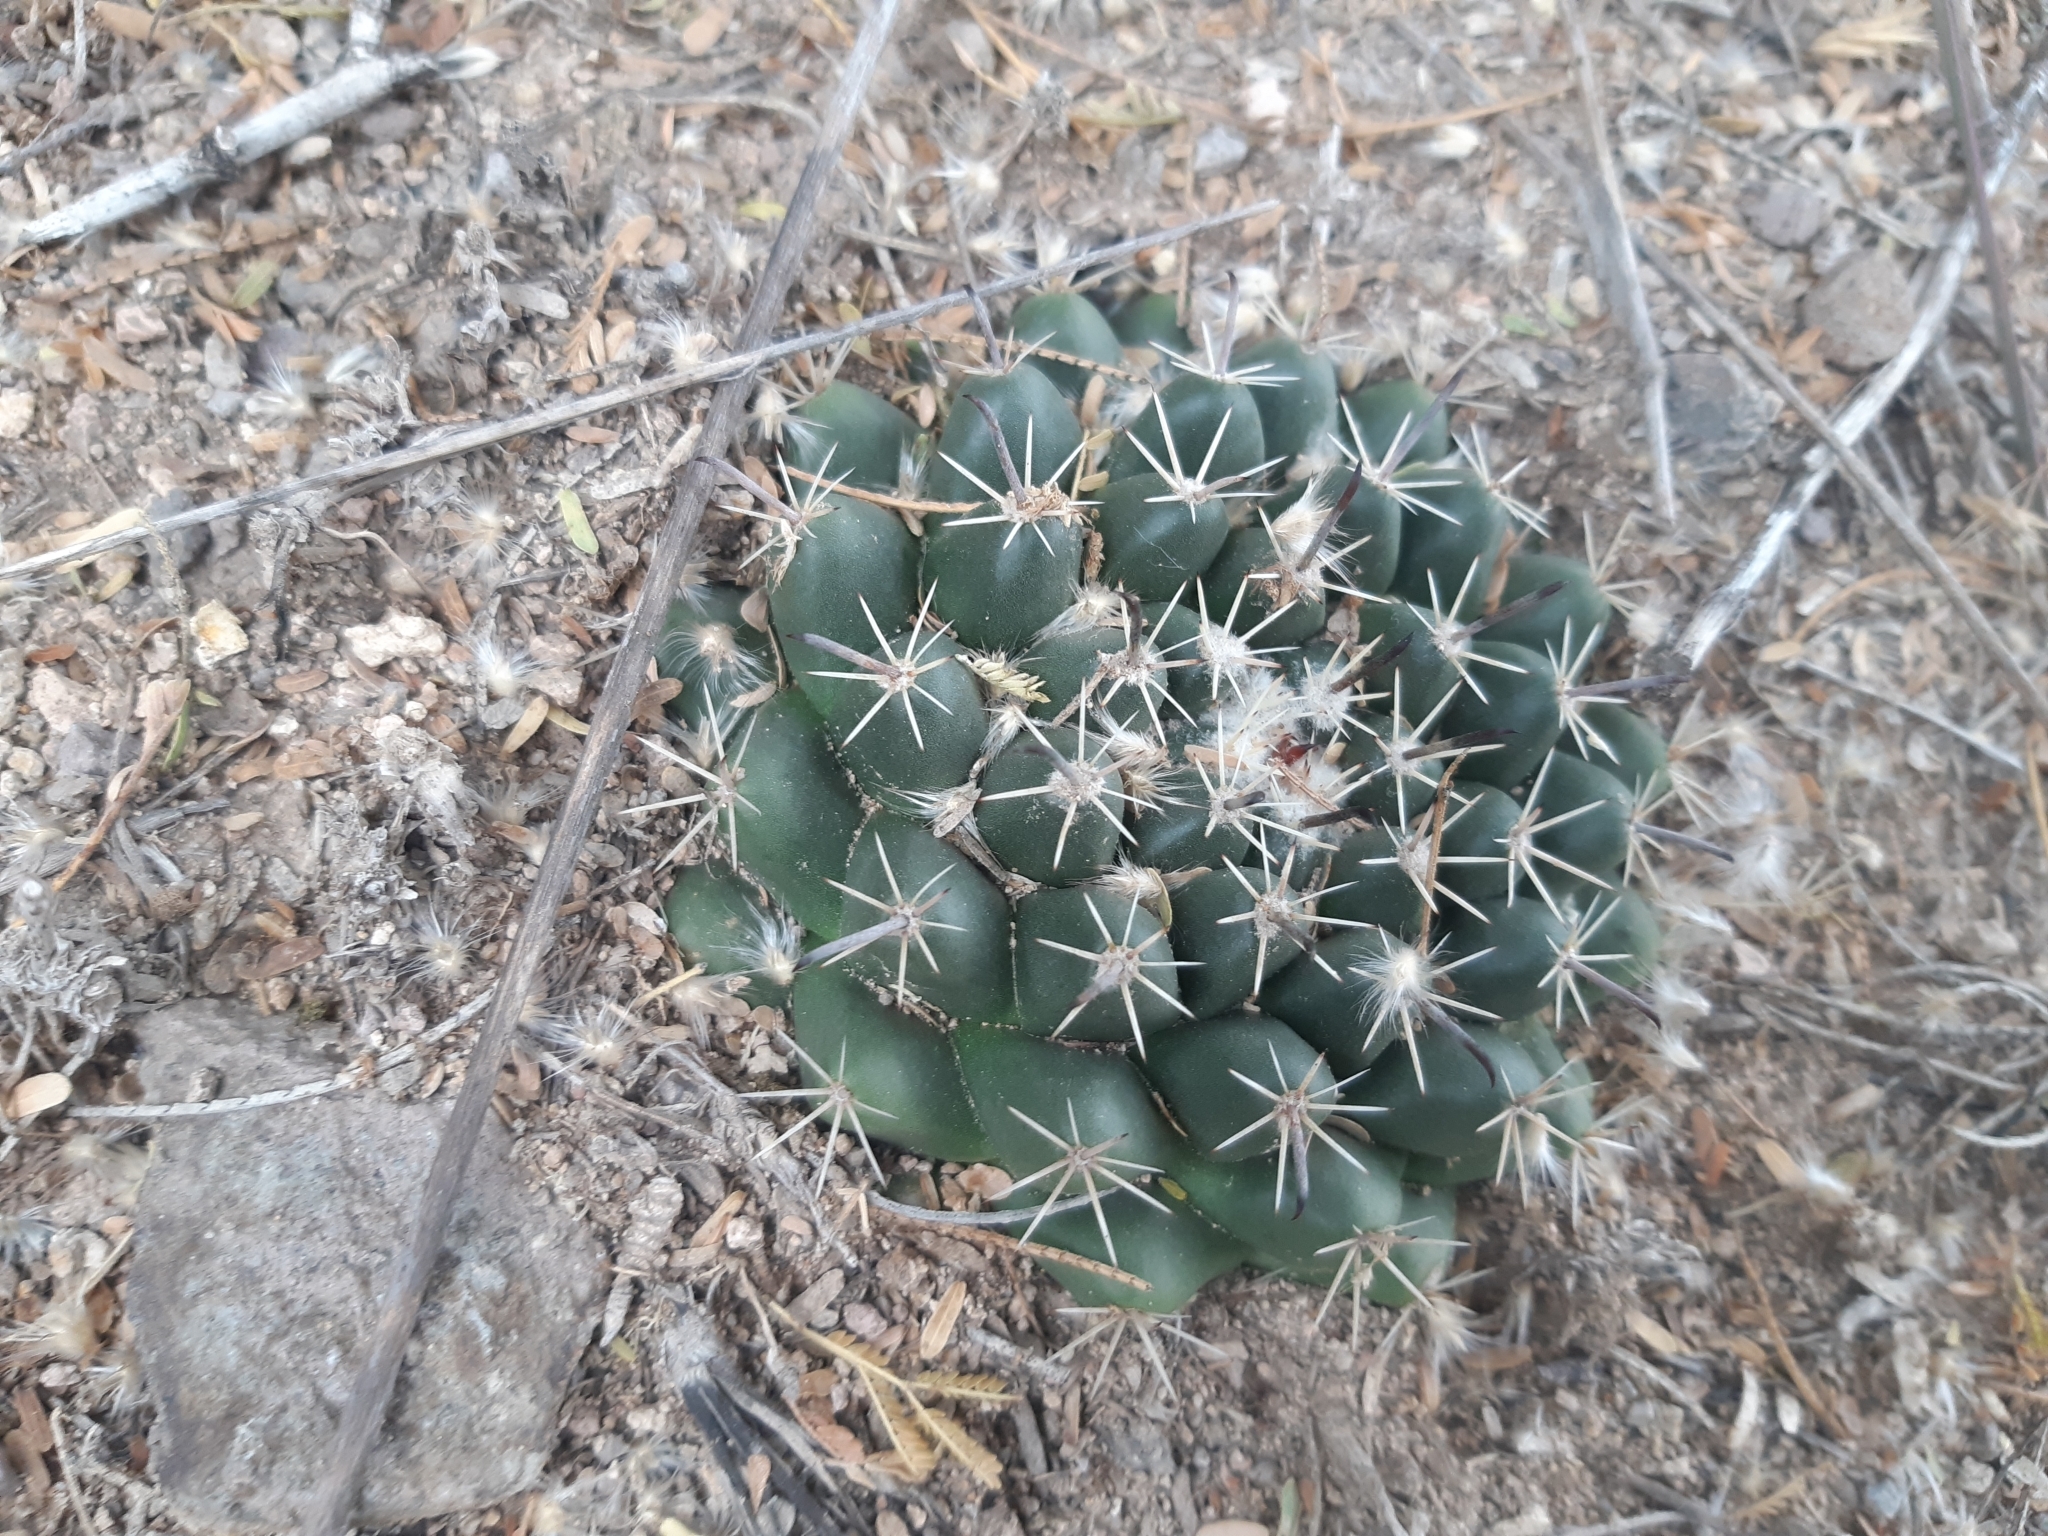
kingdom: Plantae
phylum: Tracheophyta
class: Magnoliopsida
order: Caryophyllales
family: Cactaceae
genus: Mammillaria
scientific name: Mammillaria uncinata
